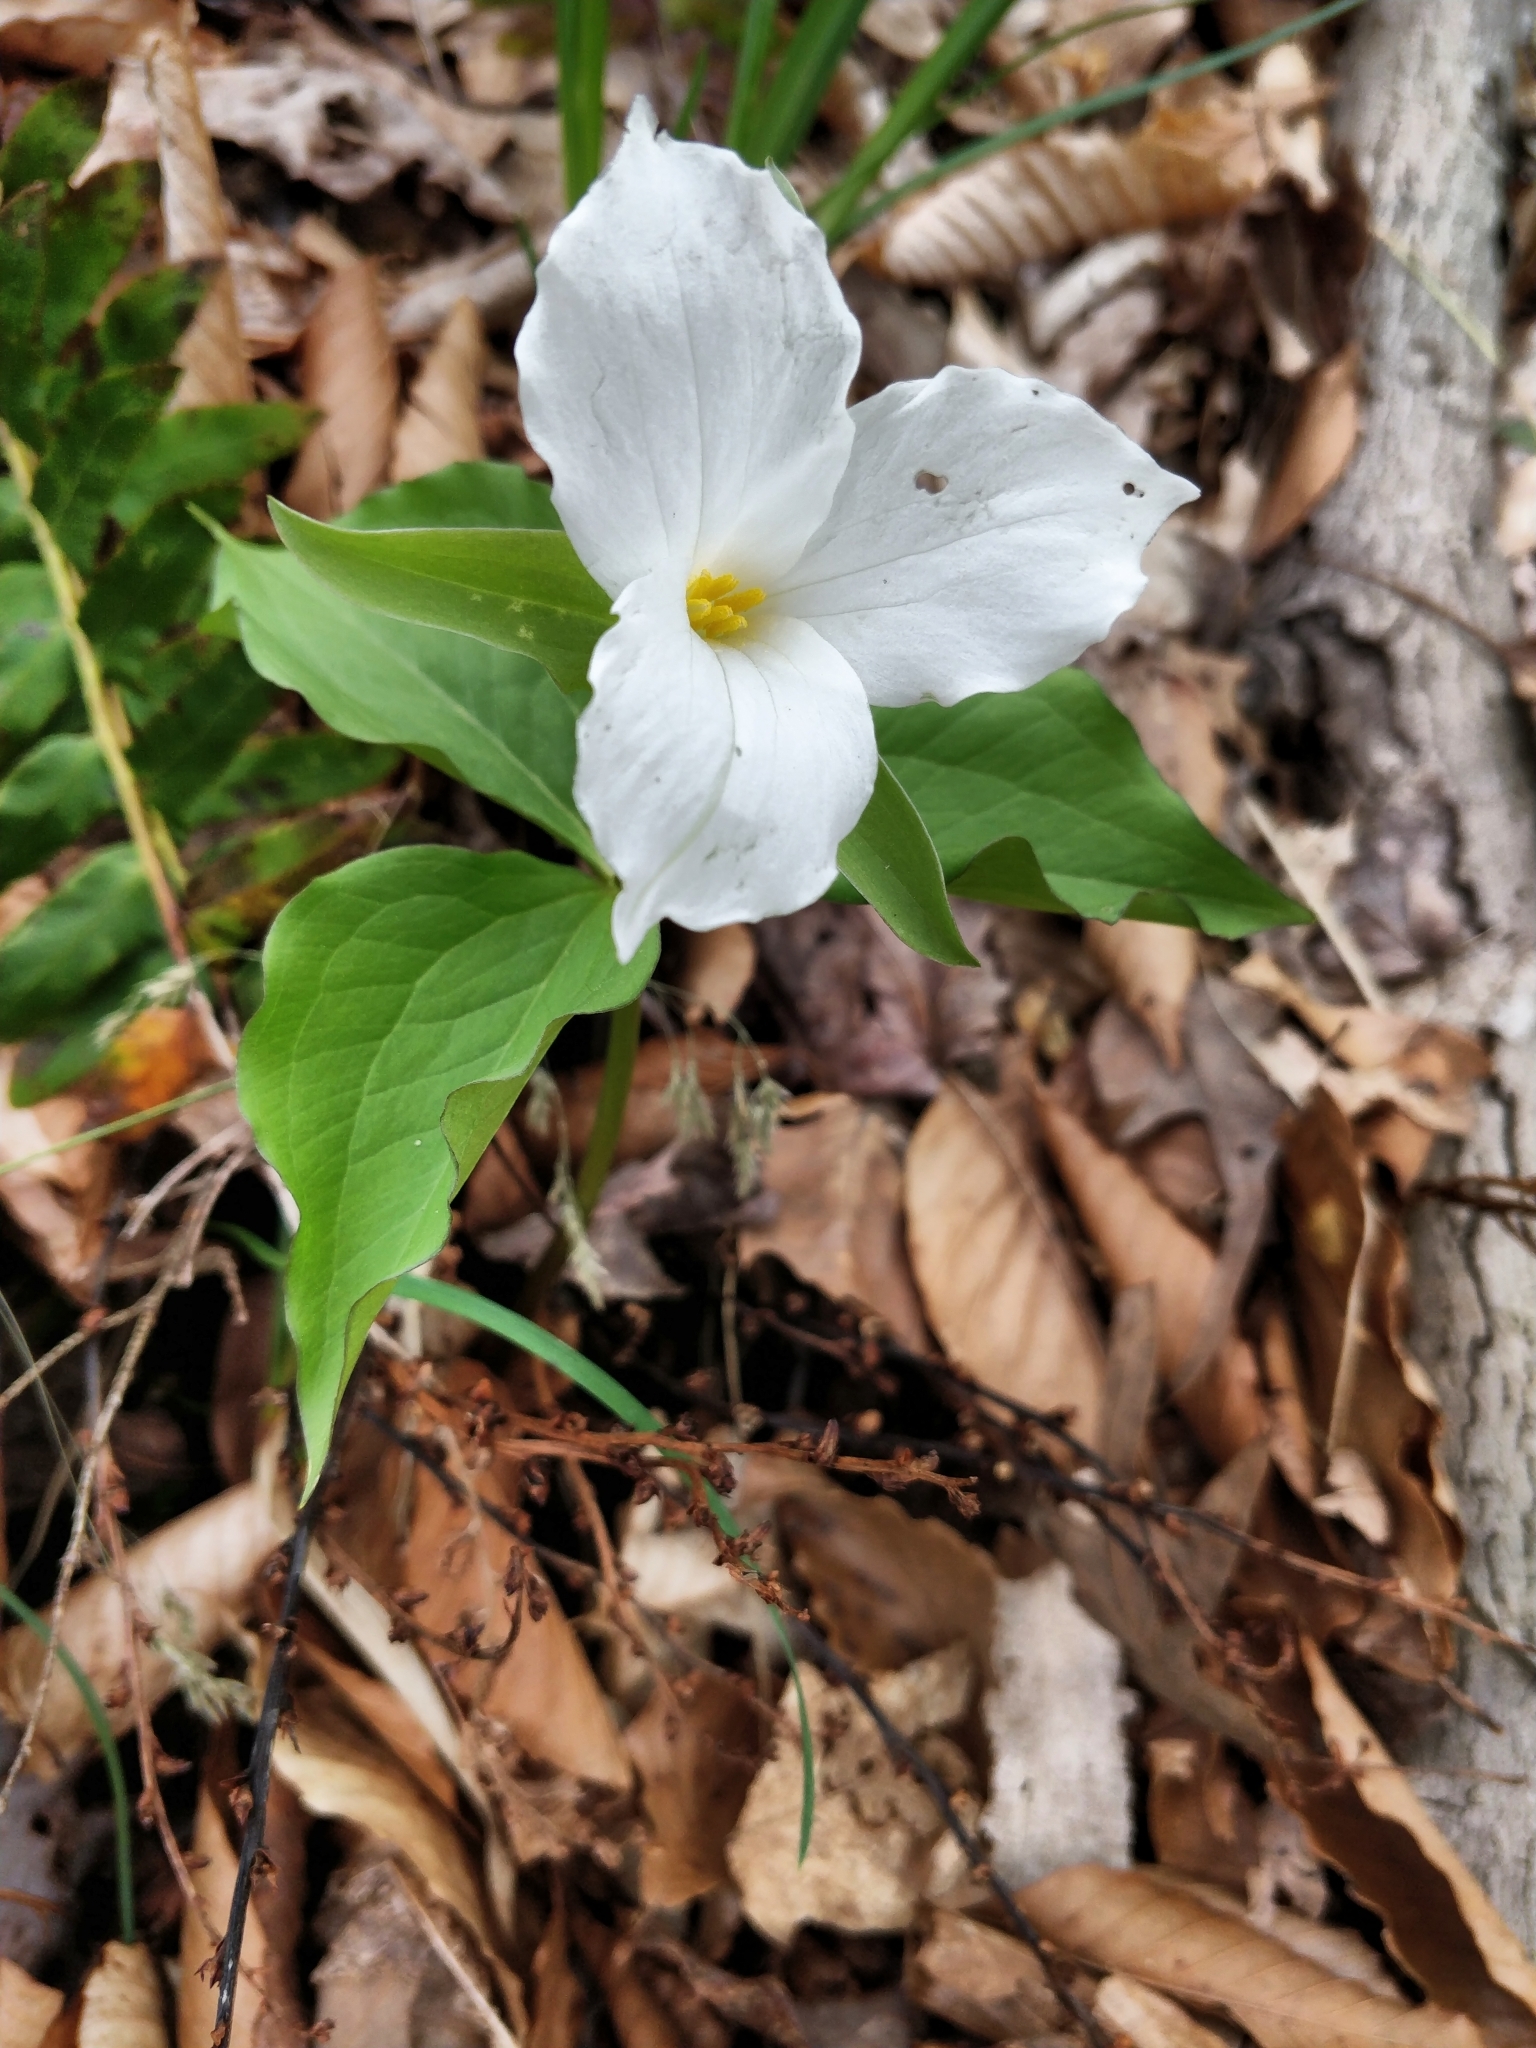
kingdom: Plantae
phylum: Tracheophyta
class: Liliopsida
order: Liliales
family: Melanthiaceae
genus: Trillium
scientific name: Trillium grandiflorum
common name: Great white trillium
